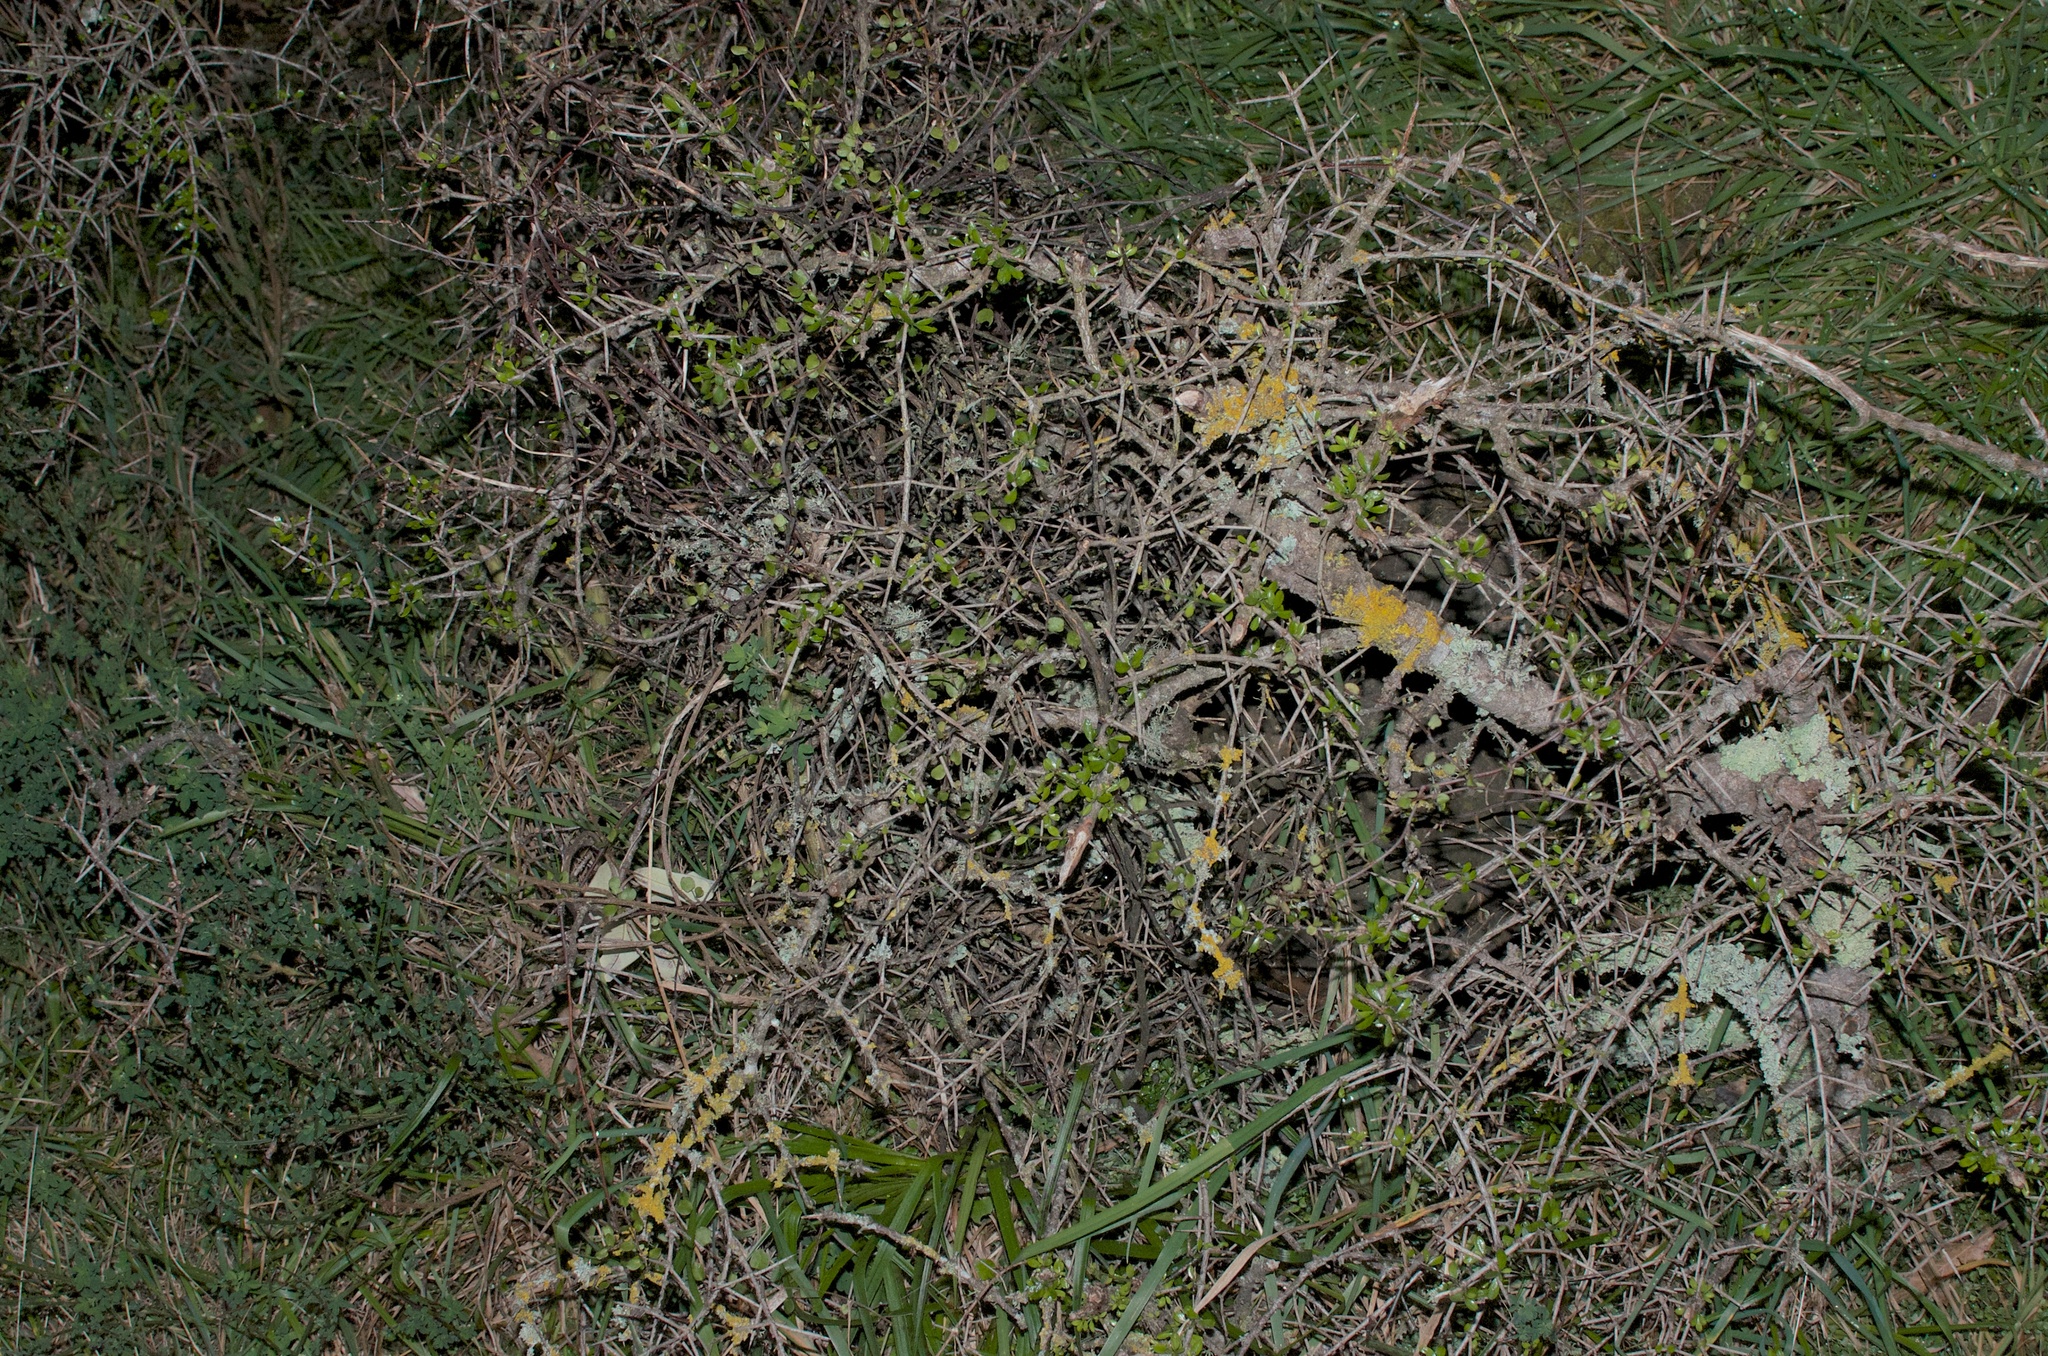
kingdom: Plantae
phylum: Tracheophyta
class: Magnoliopsida
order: Rosales
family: Rhamnaceae
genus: Discaria
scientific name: Discaria toumatou
